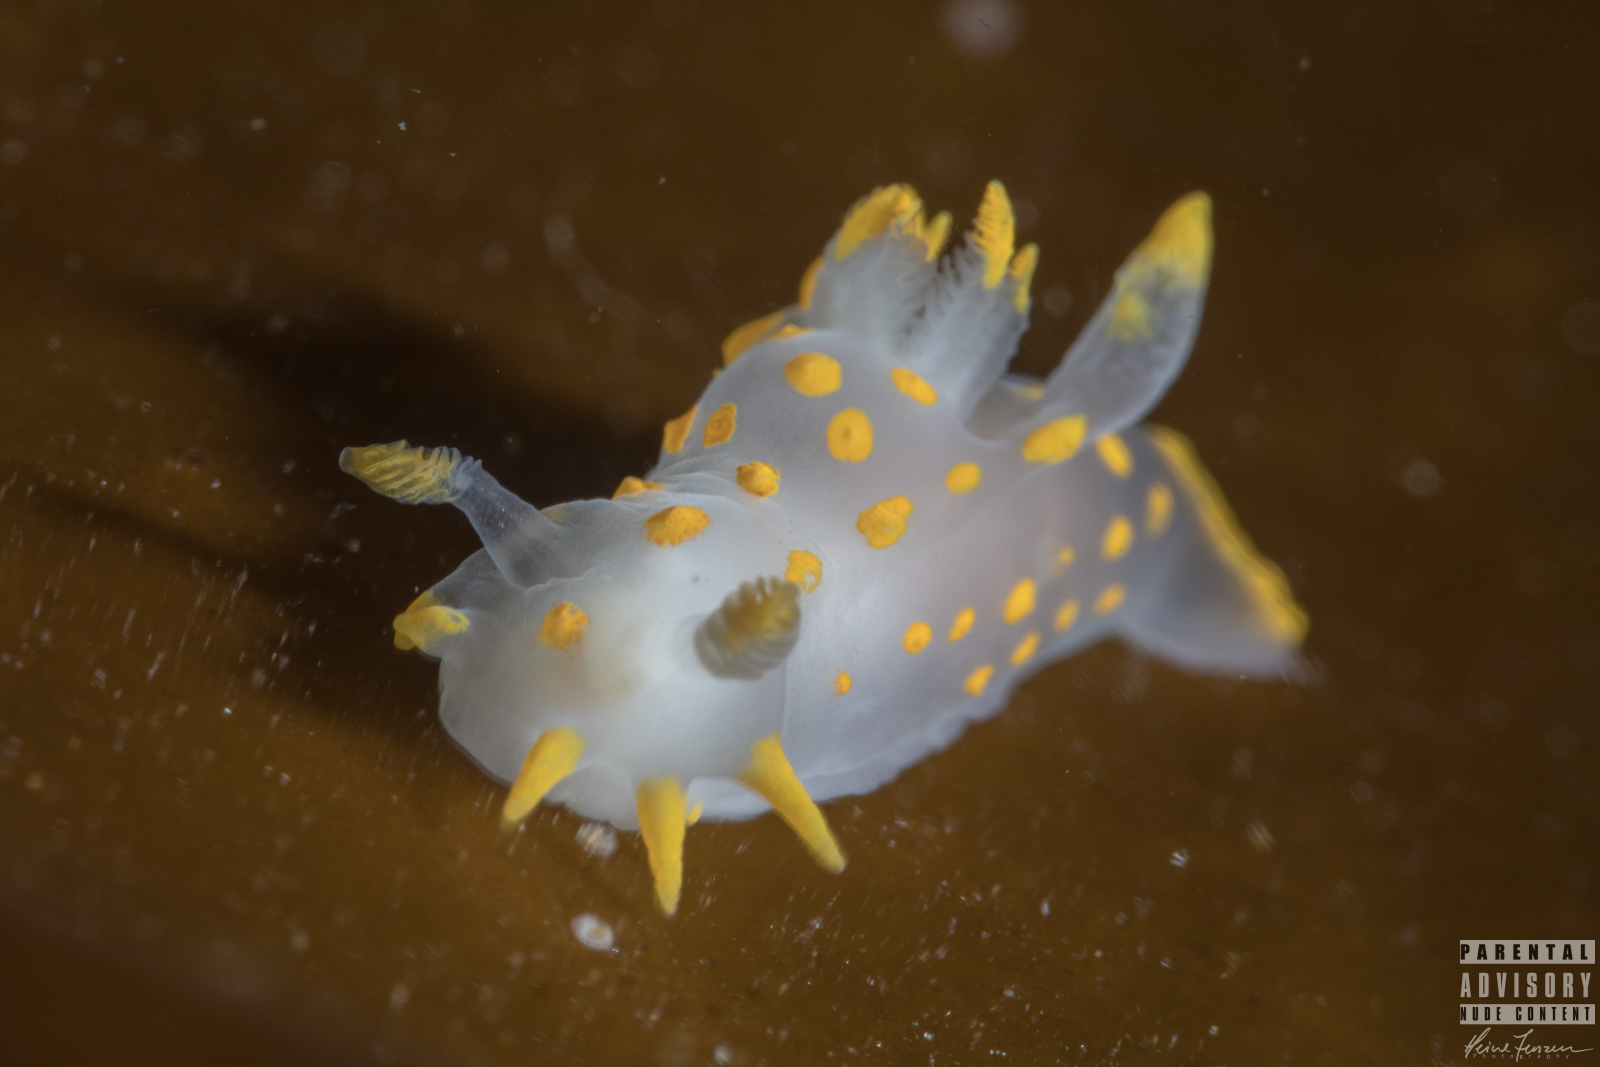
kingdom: Animalia
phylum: Mollusca
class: Gastropoda
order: Nudibranchia
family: Polyceridae
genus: Polycera
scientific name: Polycera quadrilineata
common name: Four-striped polycera
